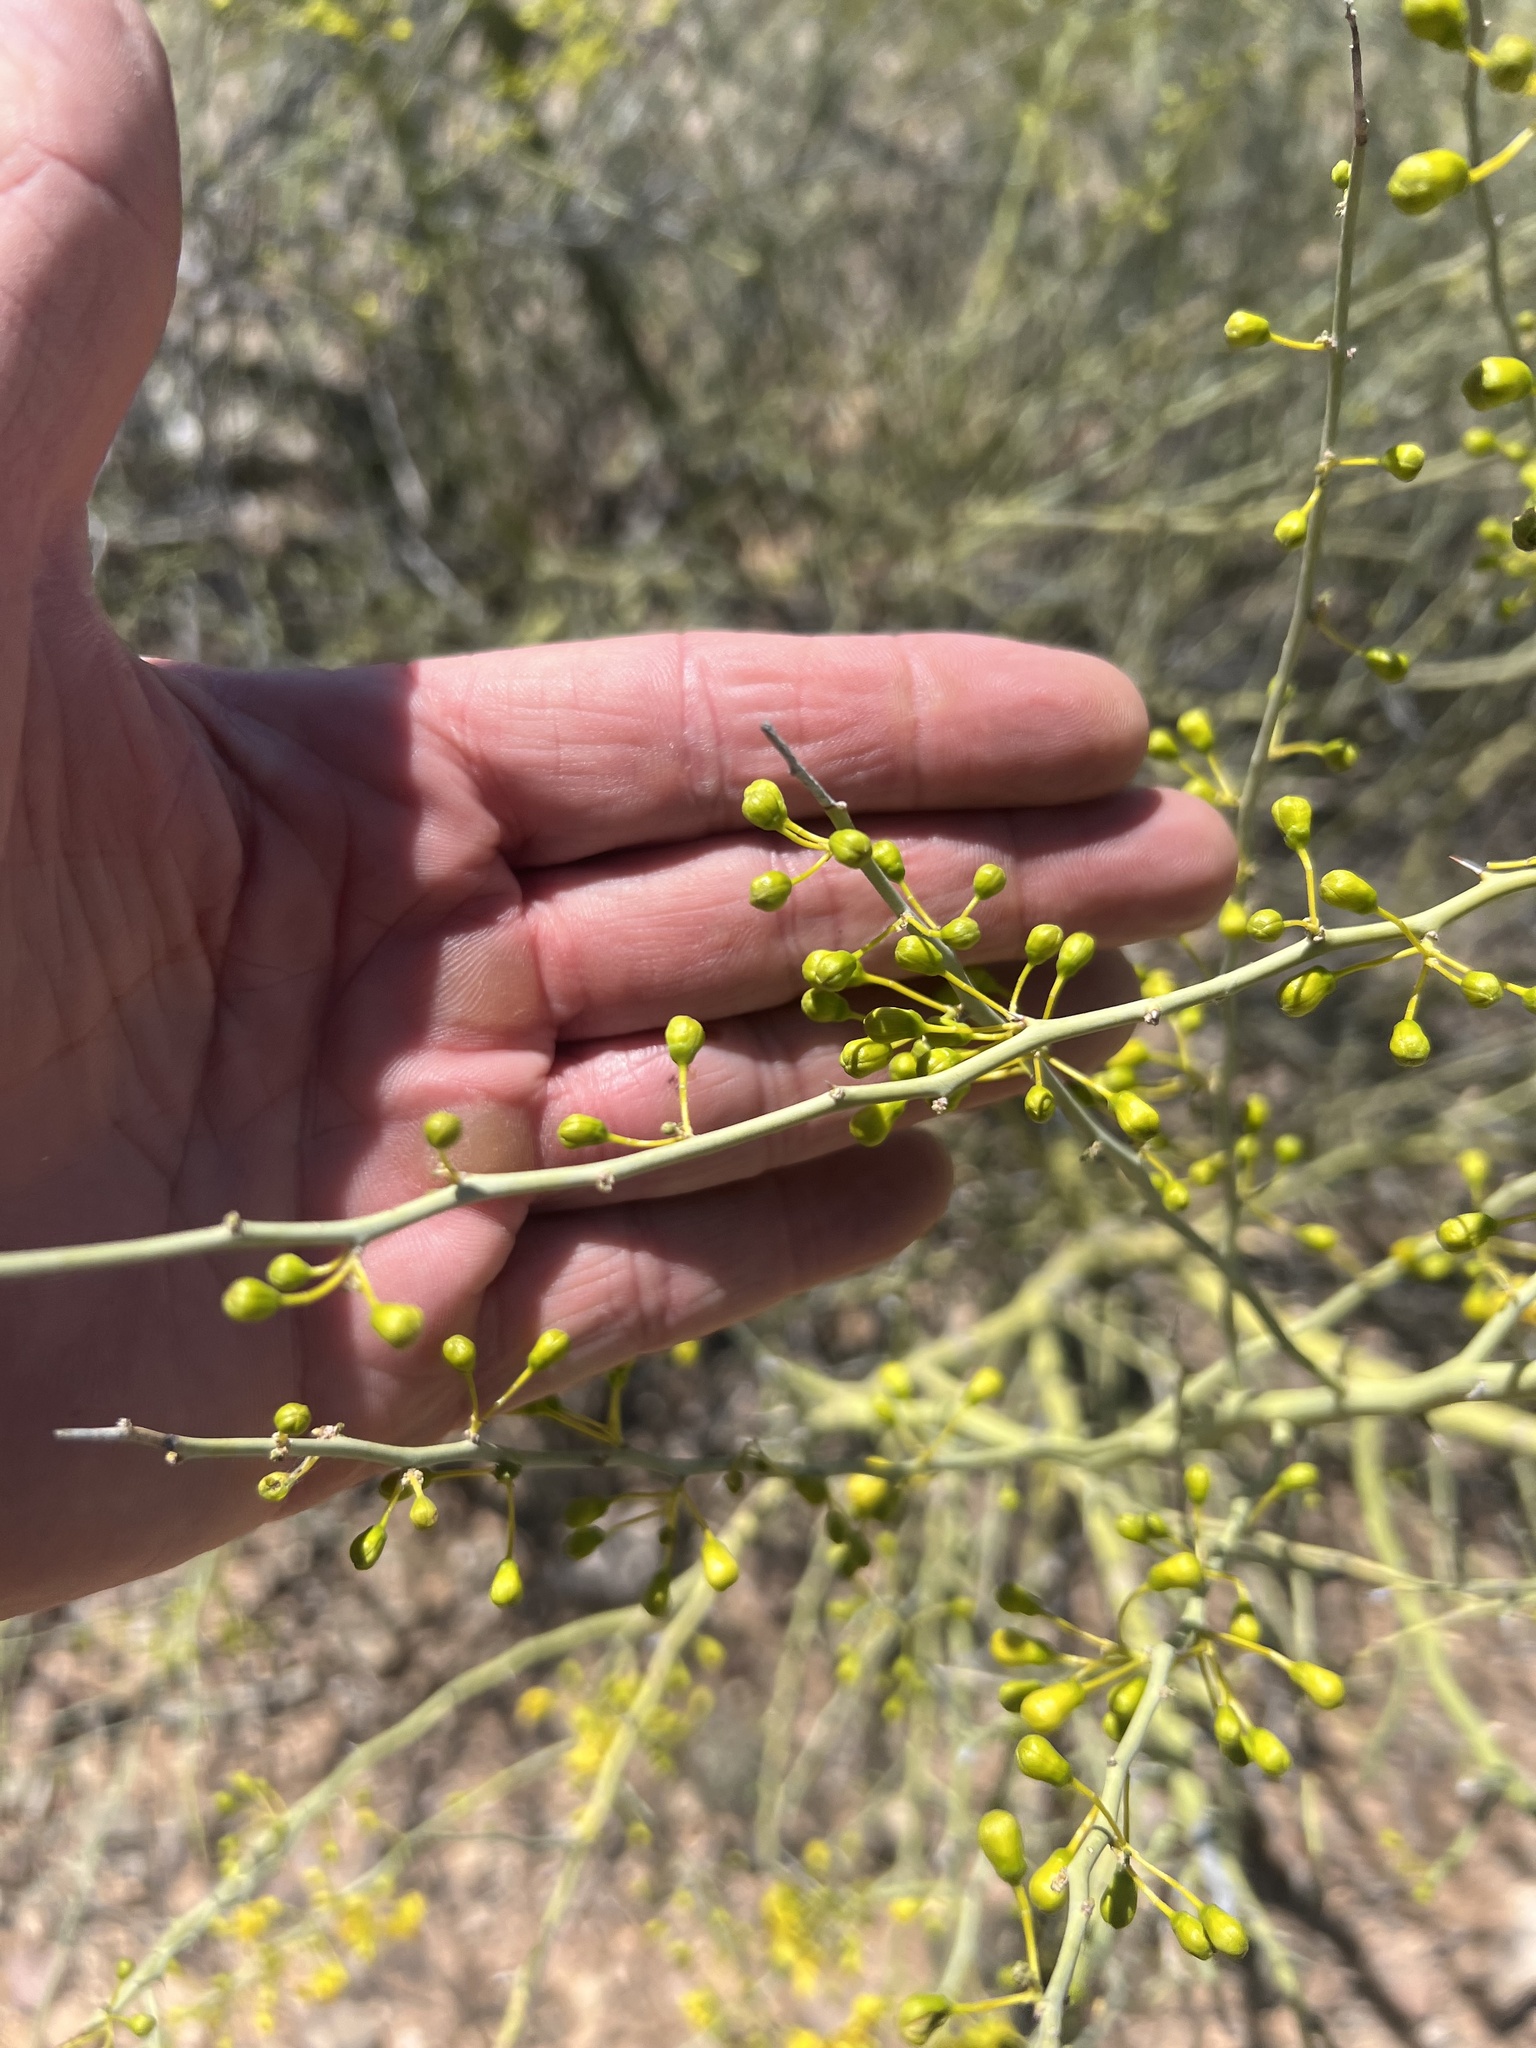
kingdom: Plantae
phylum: Tracheophyta
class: Magnoliopsida
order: Fabales
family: Fabaceae
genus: Parkinsonia
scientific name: Parkinsonia microphylla
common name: Yellow paloverde
